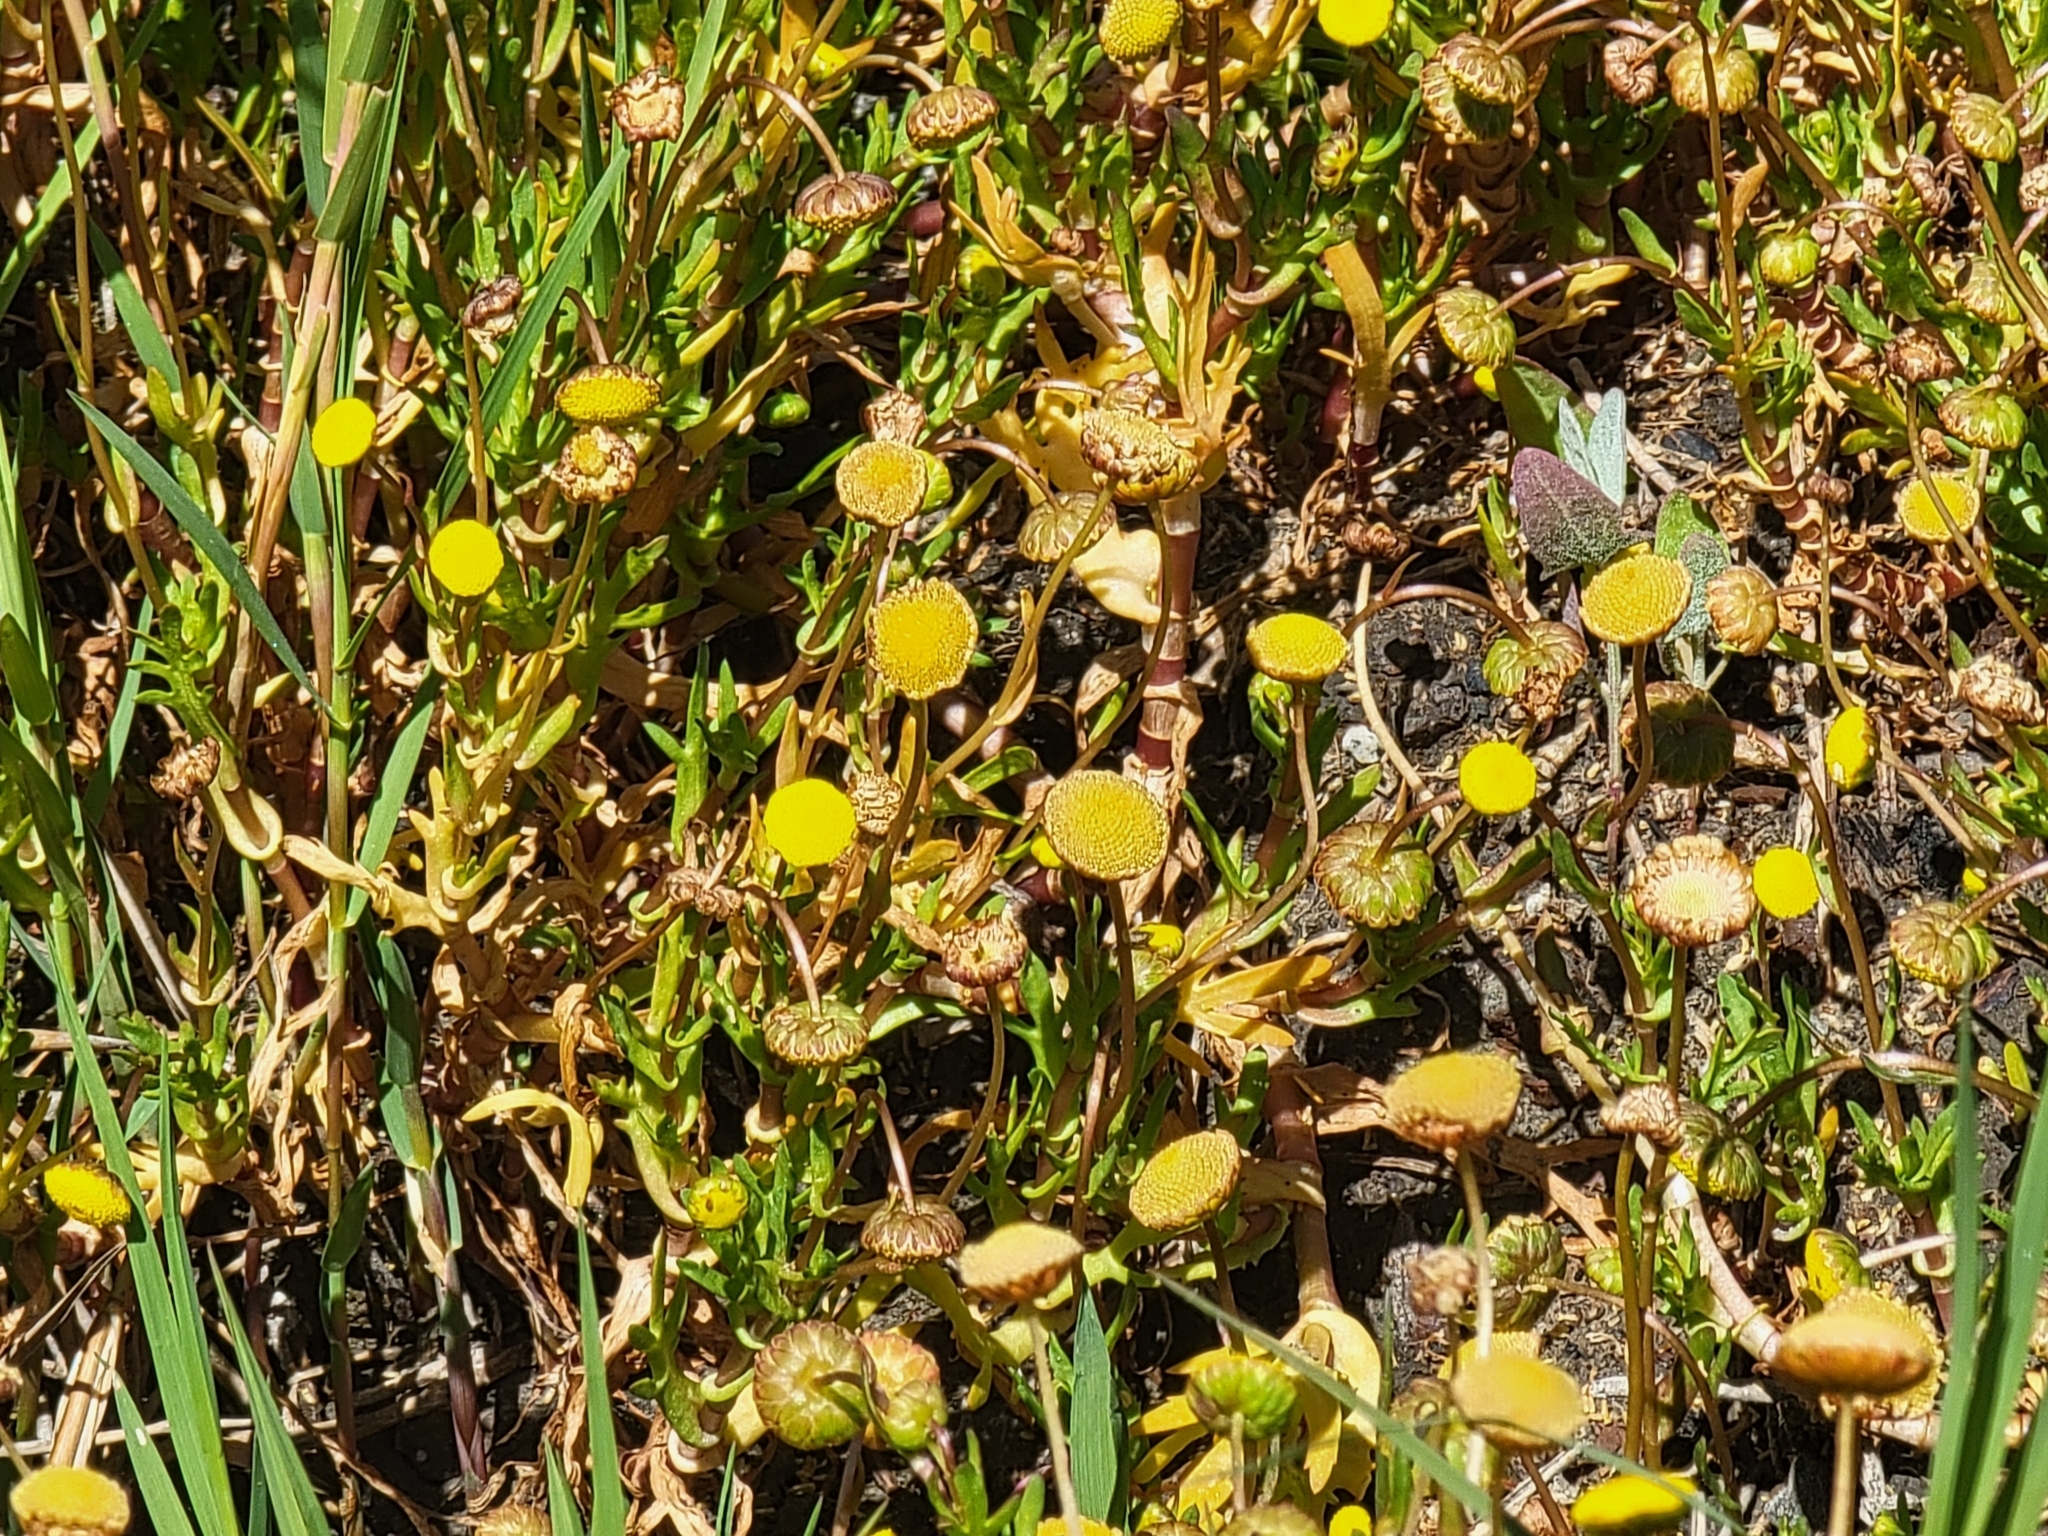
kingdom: Plantae
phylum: Tracheophyta
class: Magnoliopsida
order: Asterales
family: Asteraceae
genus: Cotula
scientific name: Cotula coronopifolia
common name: Buttonweed
